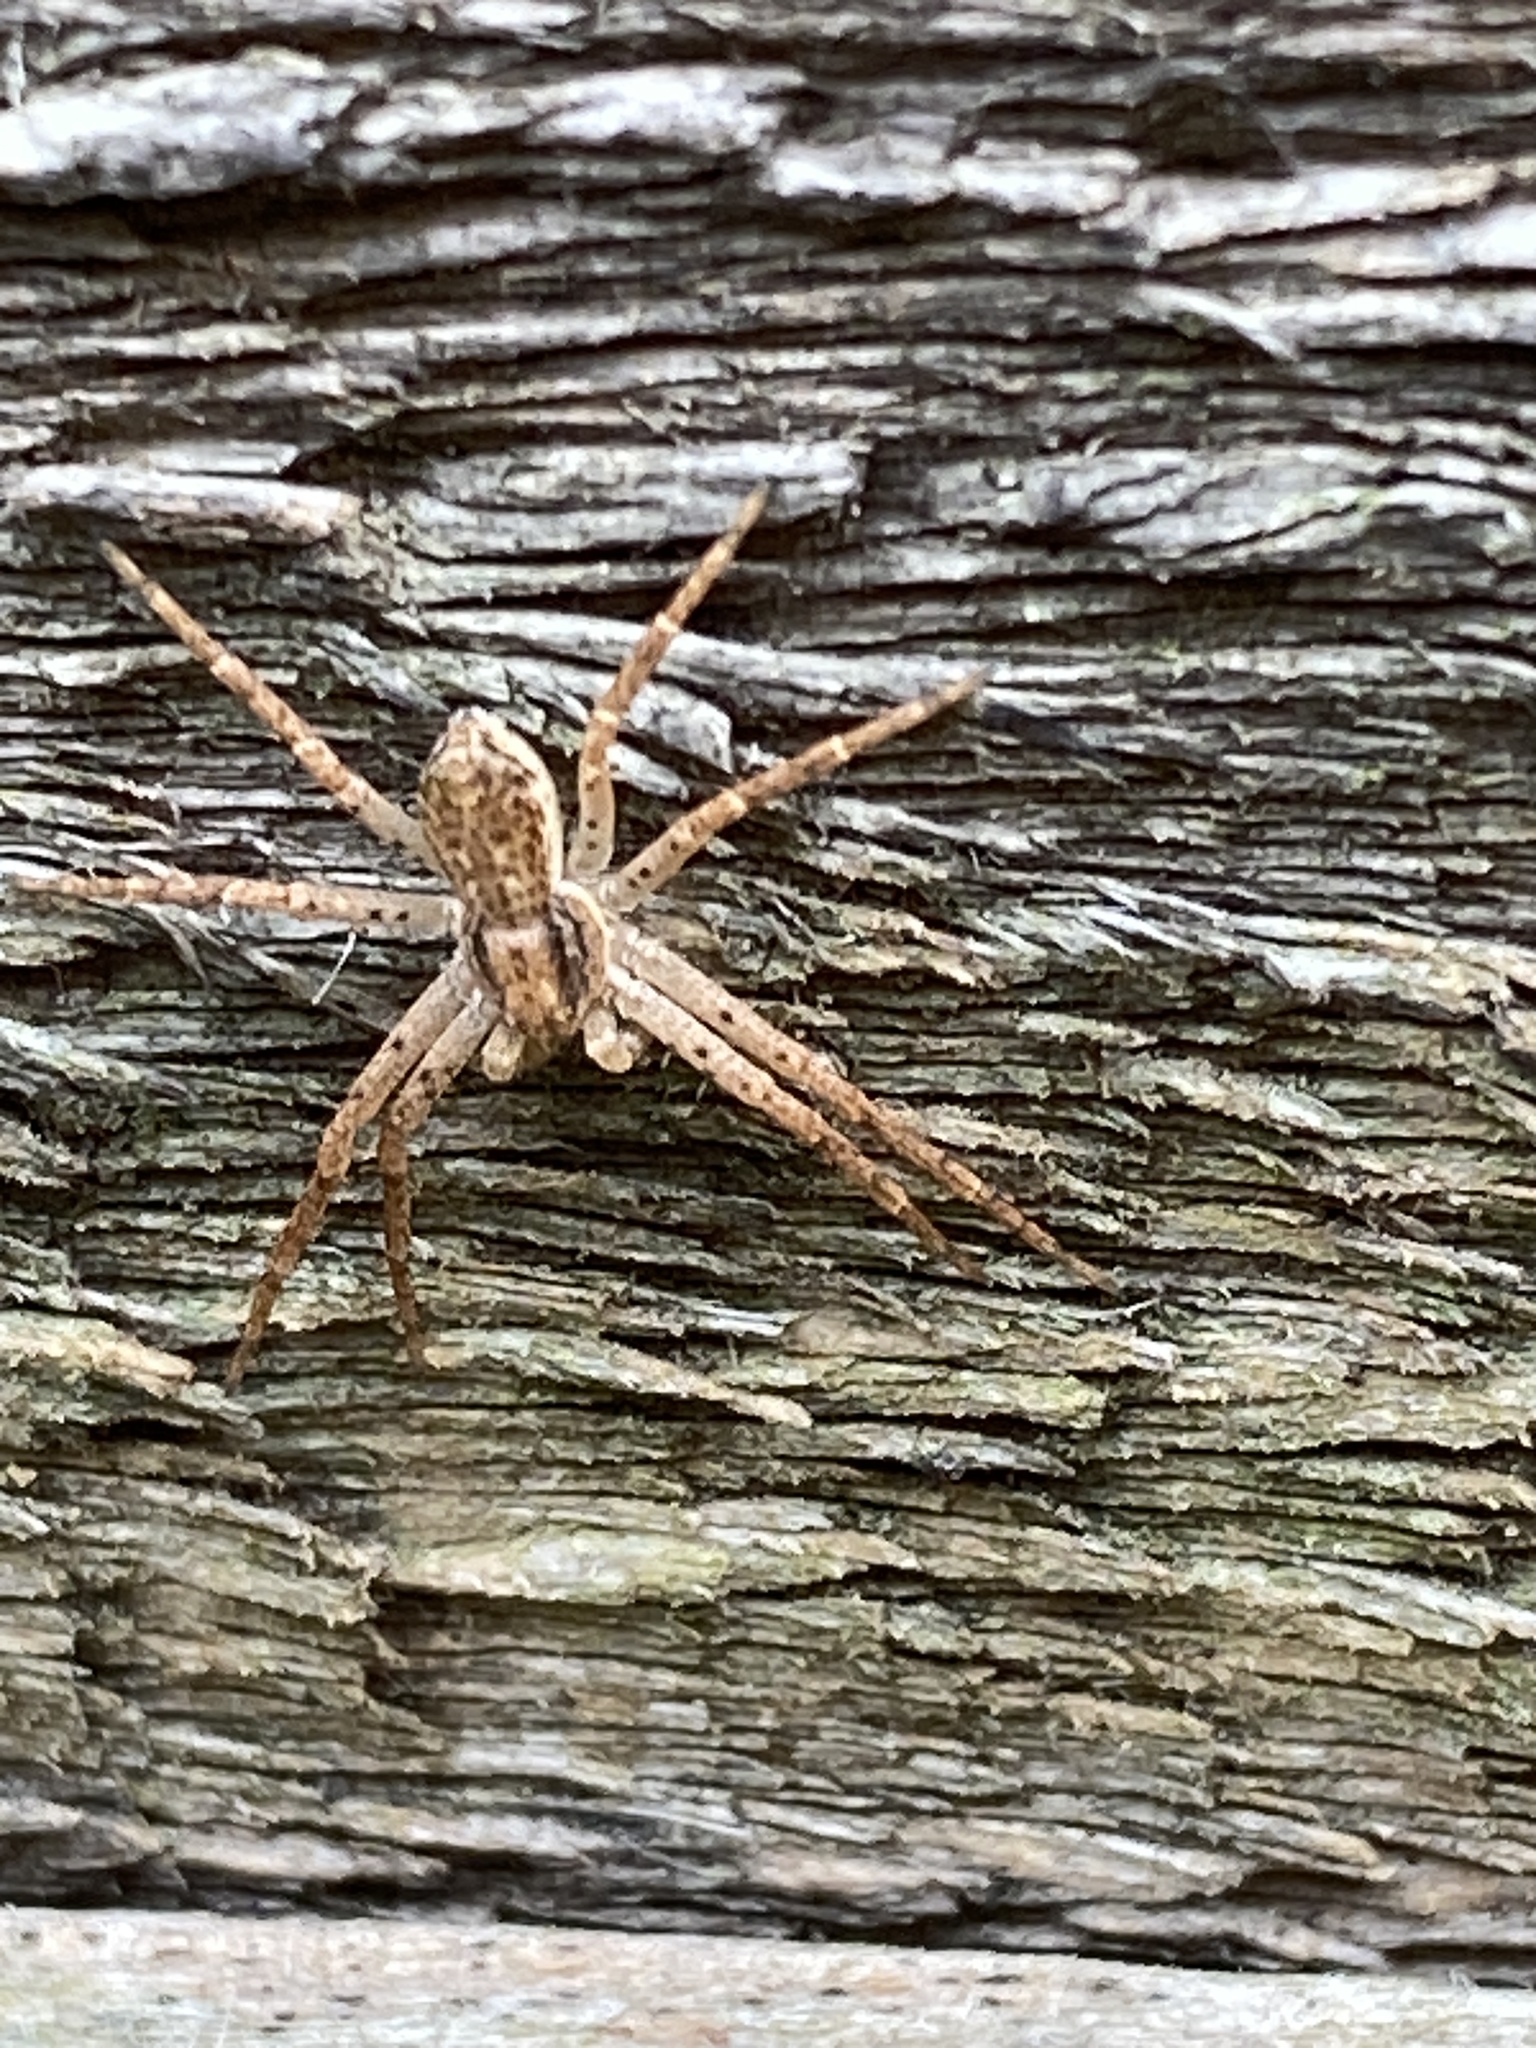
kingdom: Animalia
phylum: Arthropoda
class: Arachnida
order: Araneae
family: Philodromidae
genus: Philodromus
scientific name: Philodromus dispar
